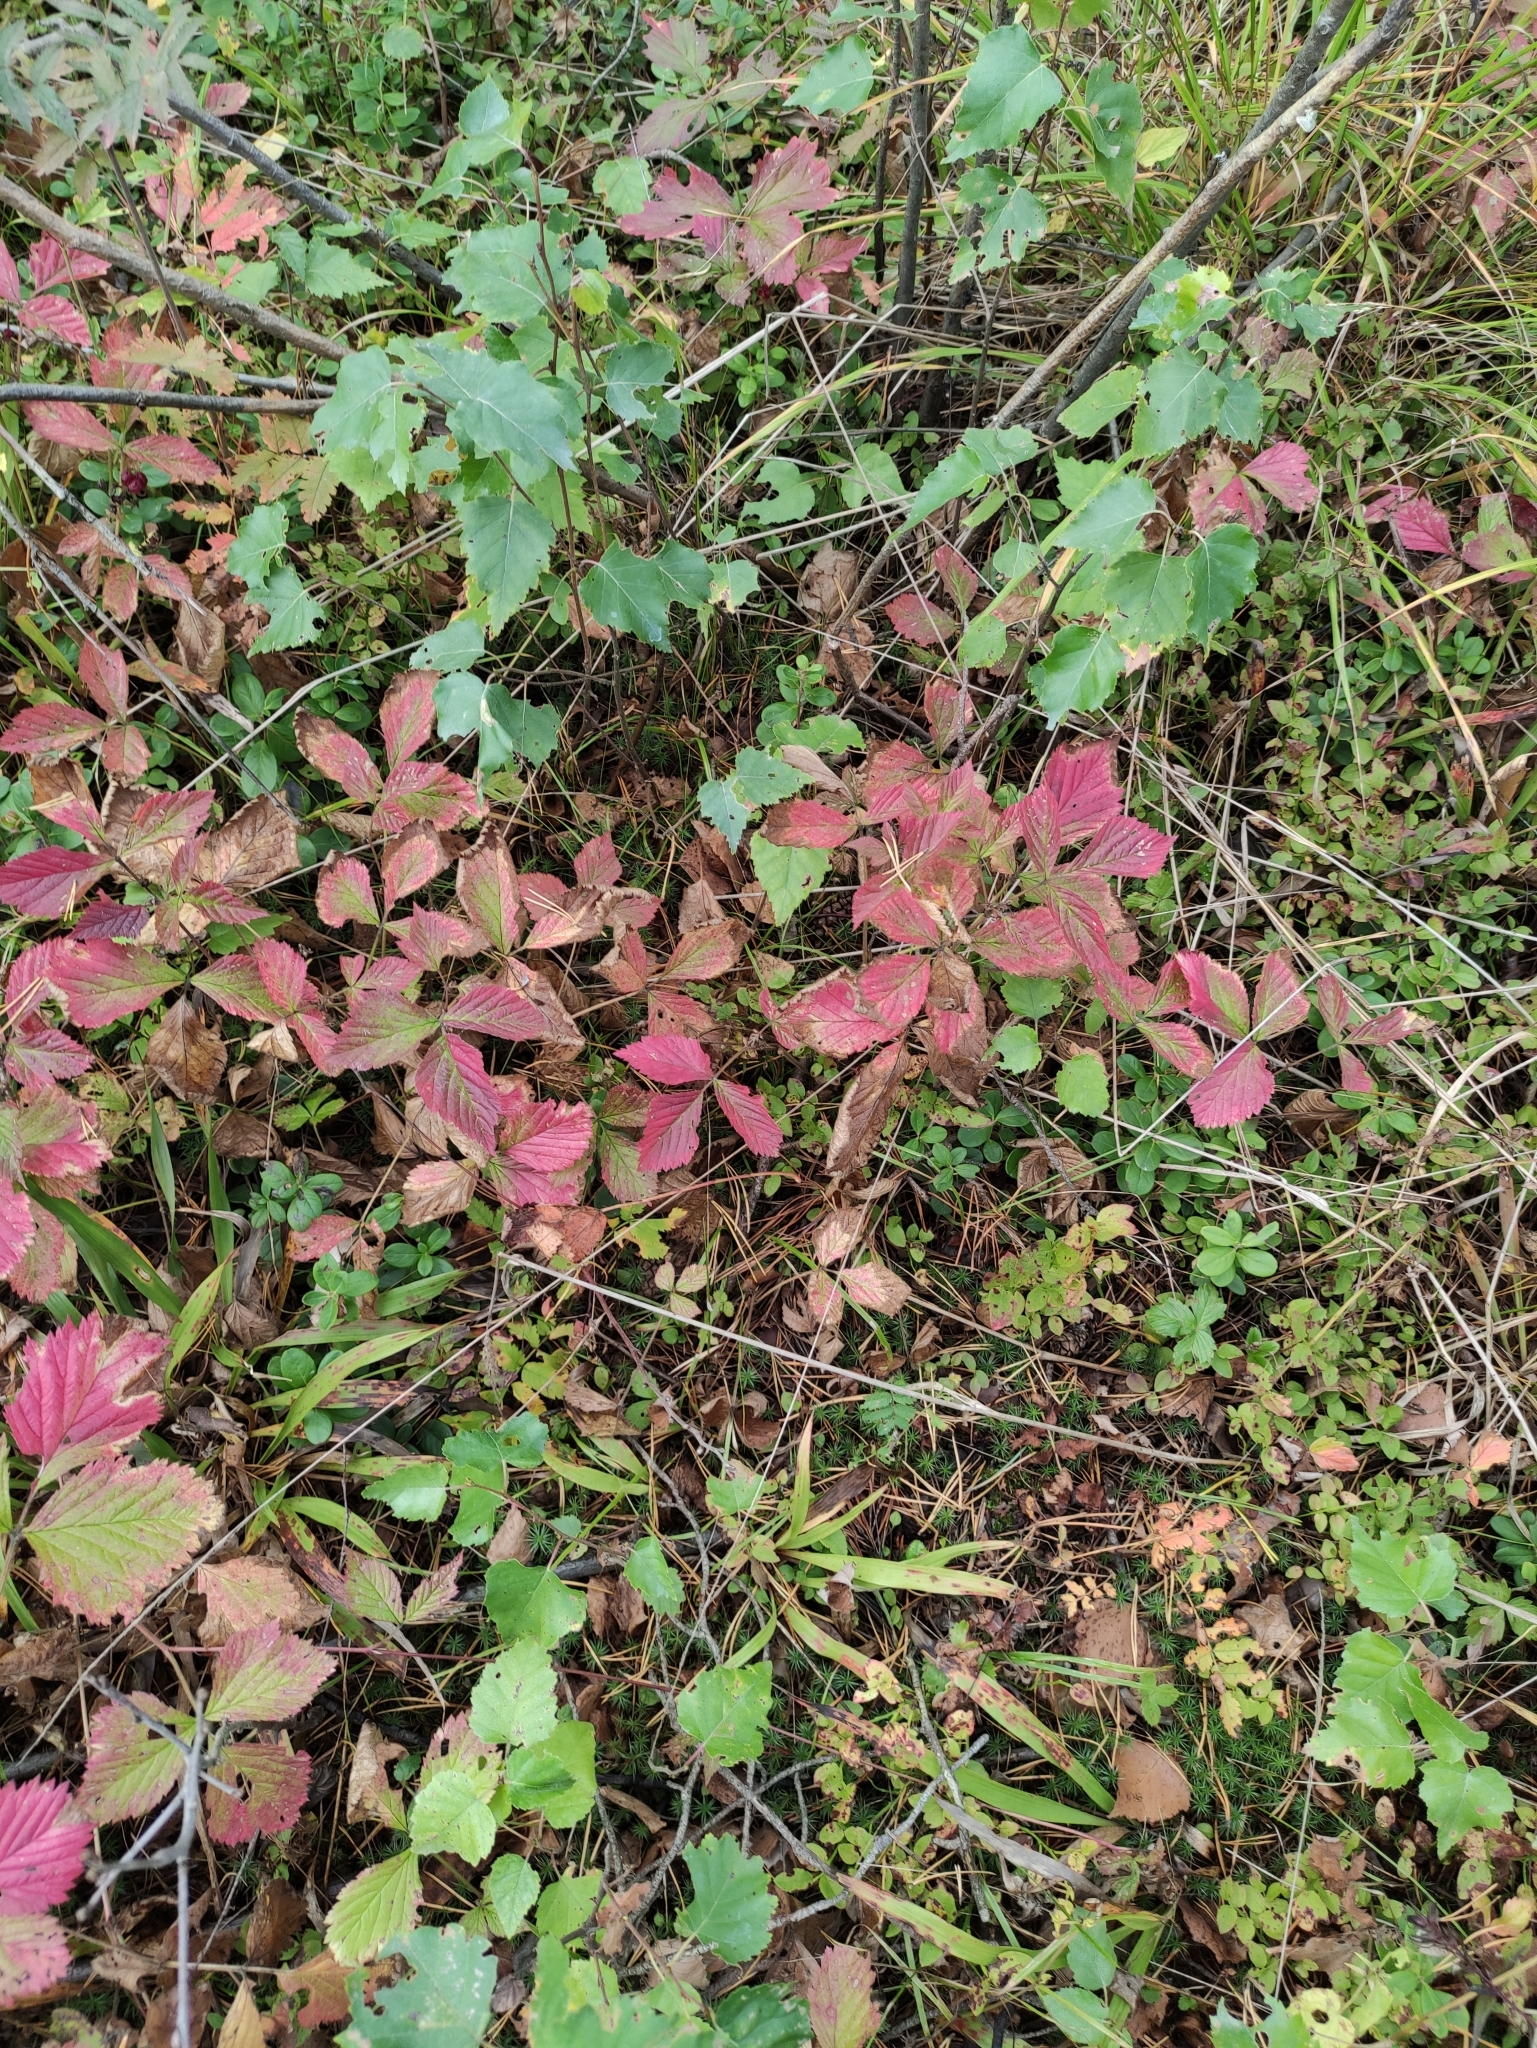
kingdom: Plantae
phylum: Tracheophyta
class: Magnoliopsida
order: Rosales
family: Rosaceae
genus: Rubus
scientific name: Rubus saxatilis
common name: Stone bramble
